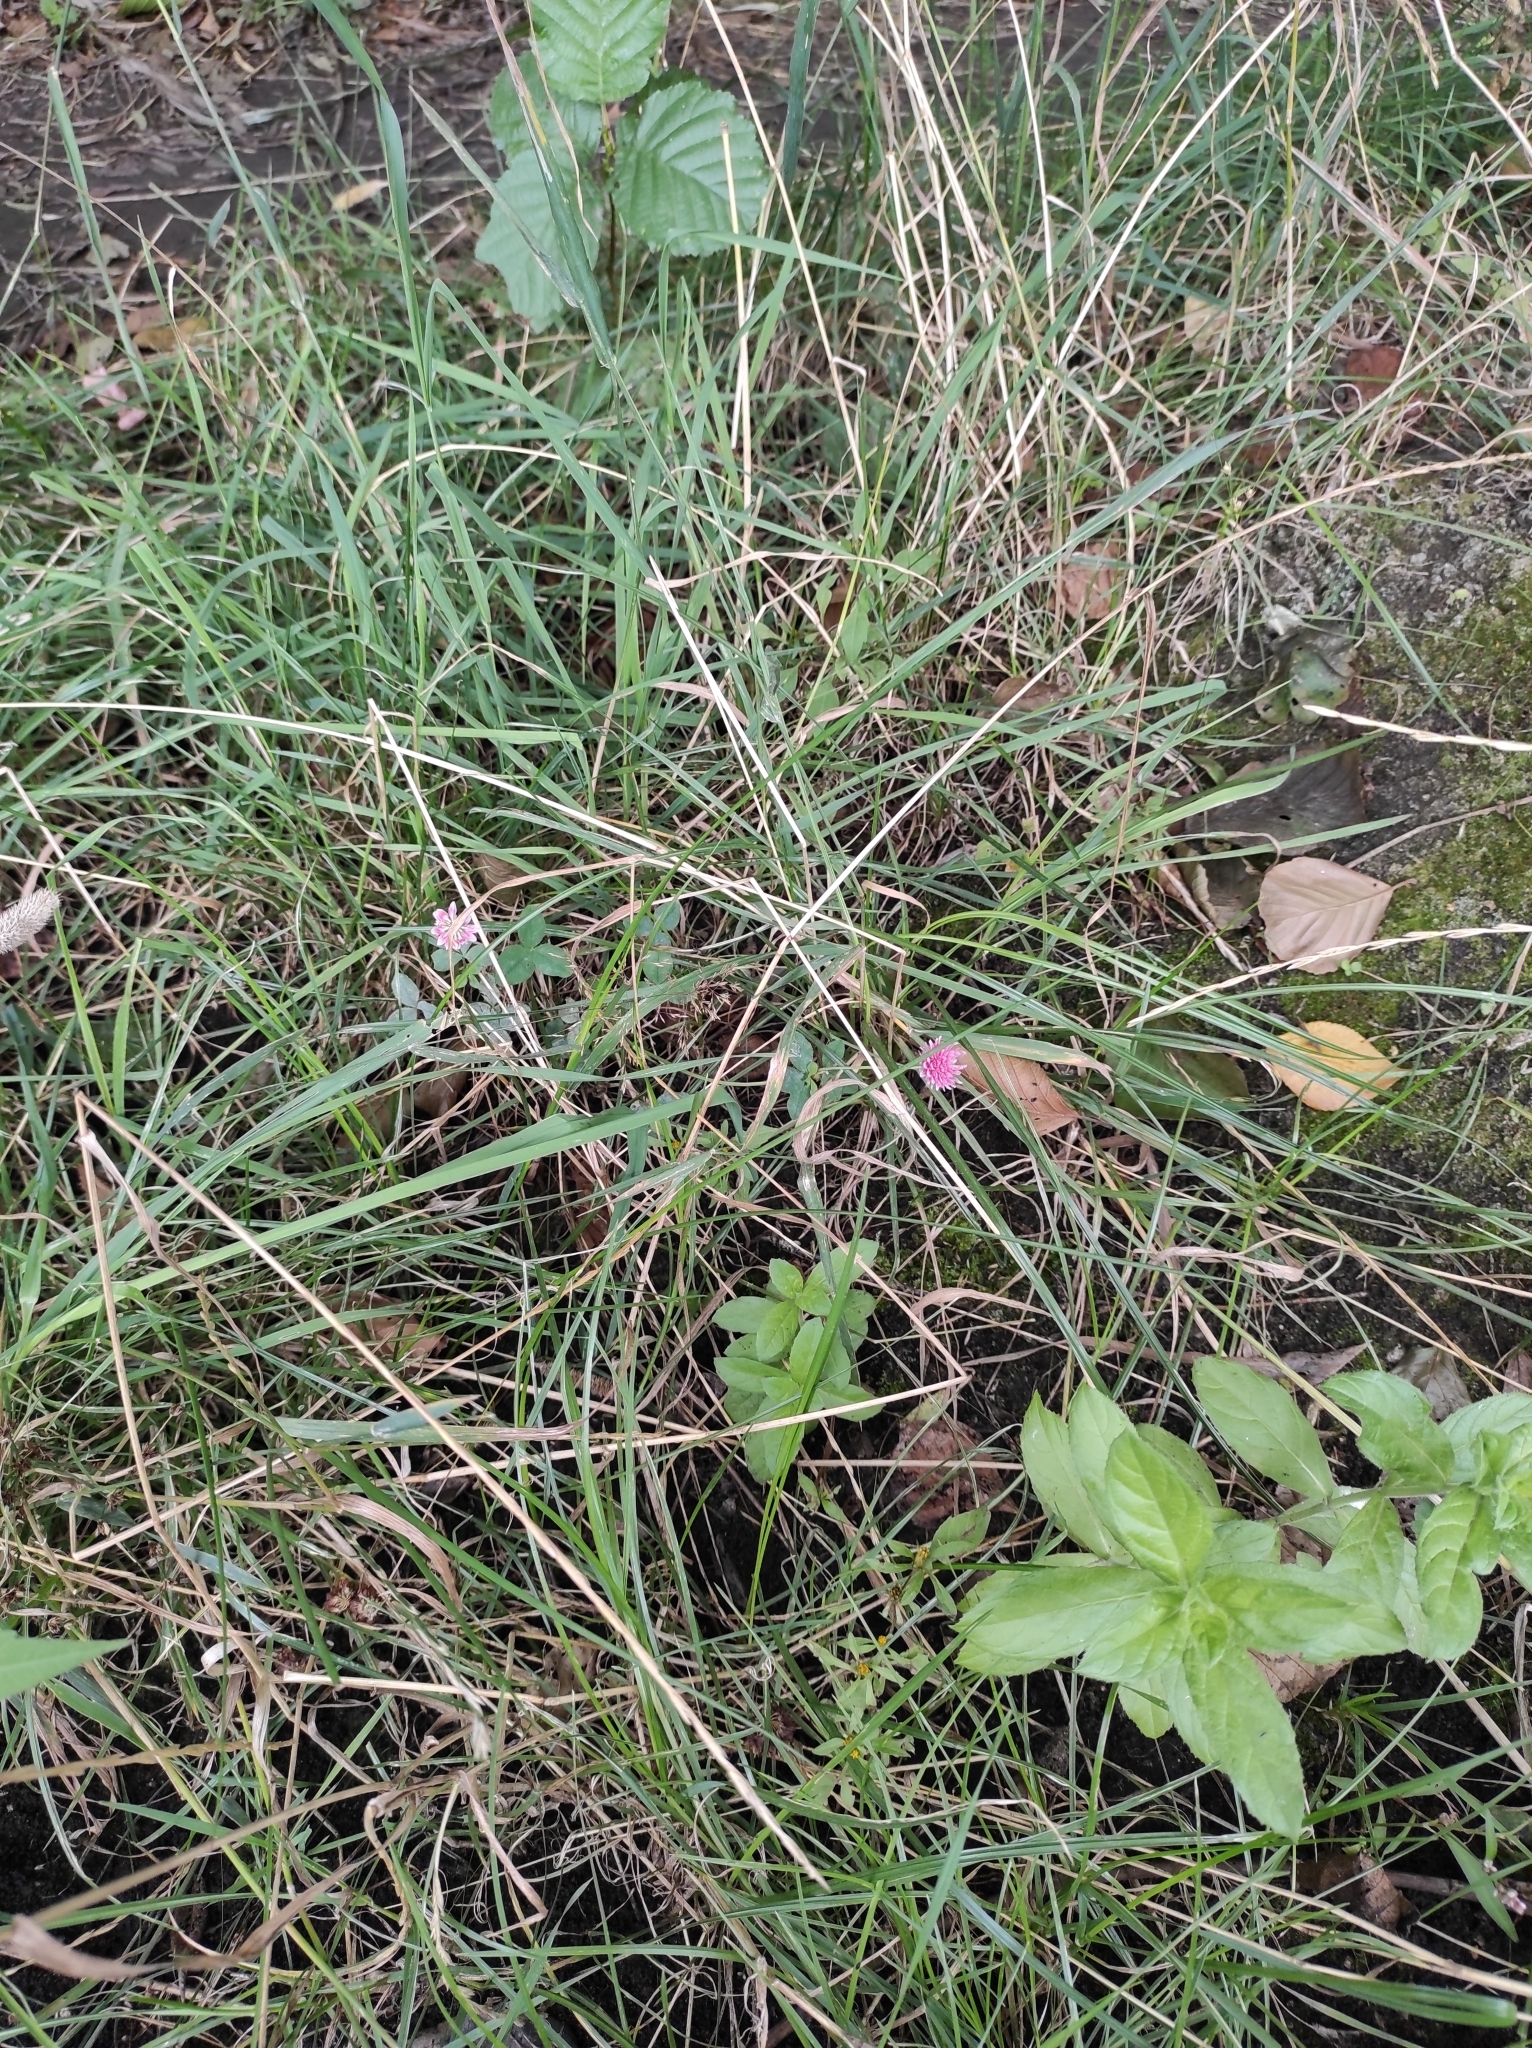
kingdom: Plantae
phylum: Tracheophyta
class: Magnoliopsida
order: Fabales
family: Fabaceae
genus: Trifolium
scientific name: Trifolium hybridum
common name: Alsike clover
